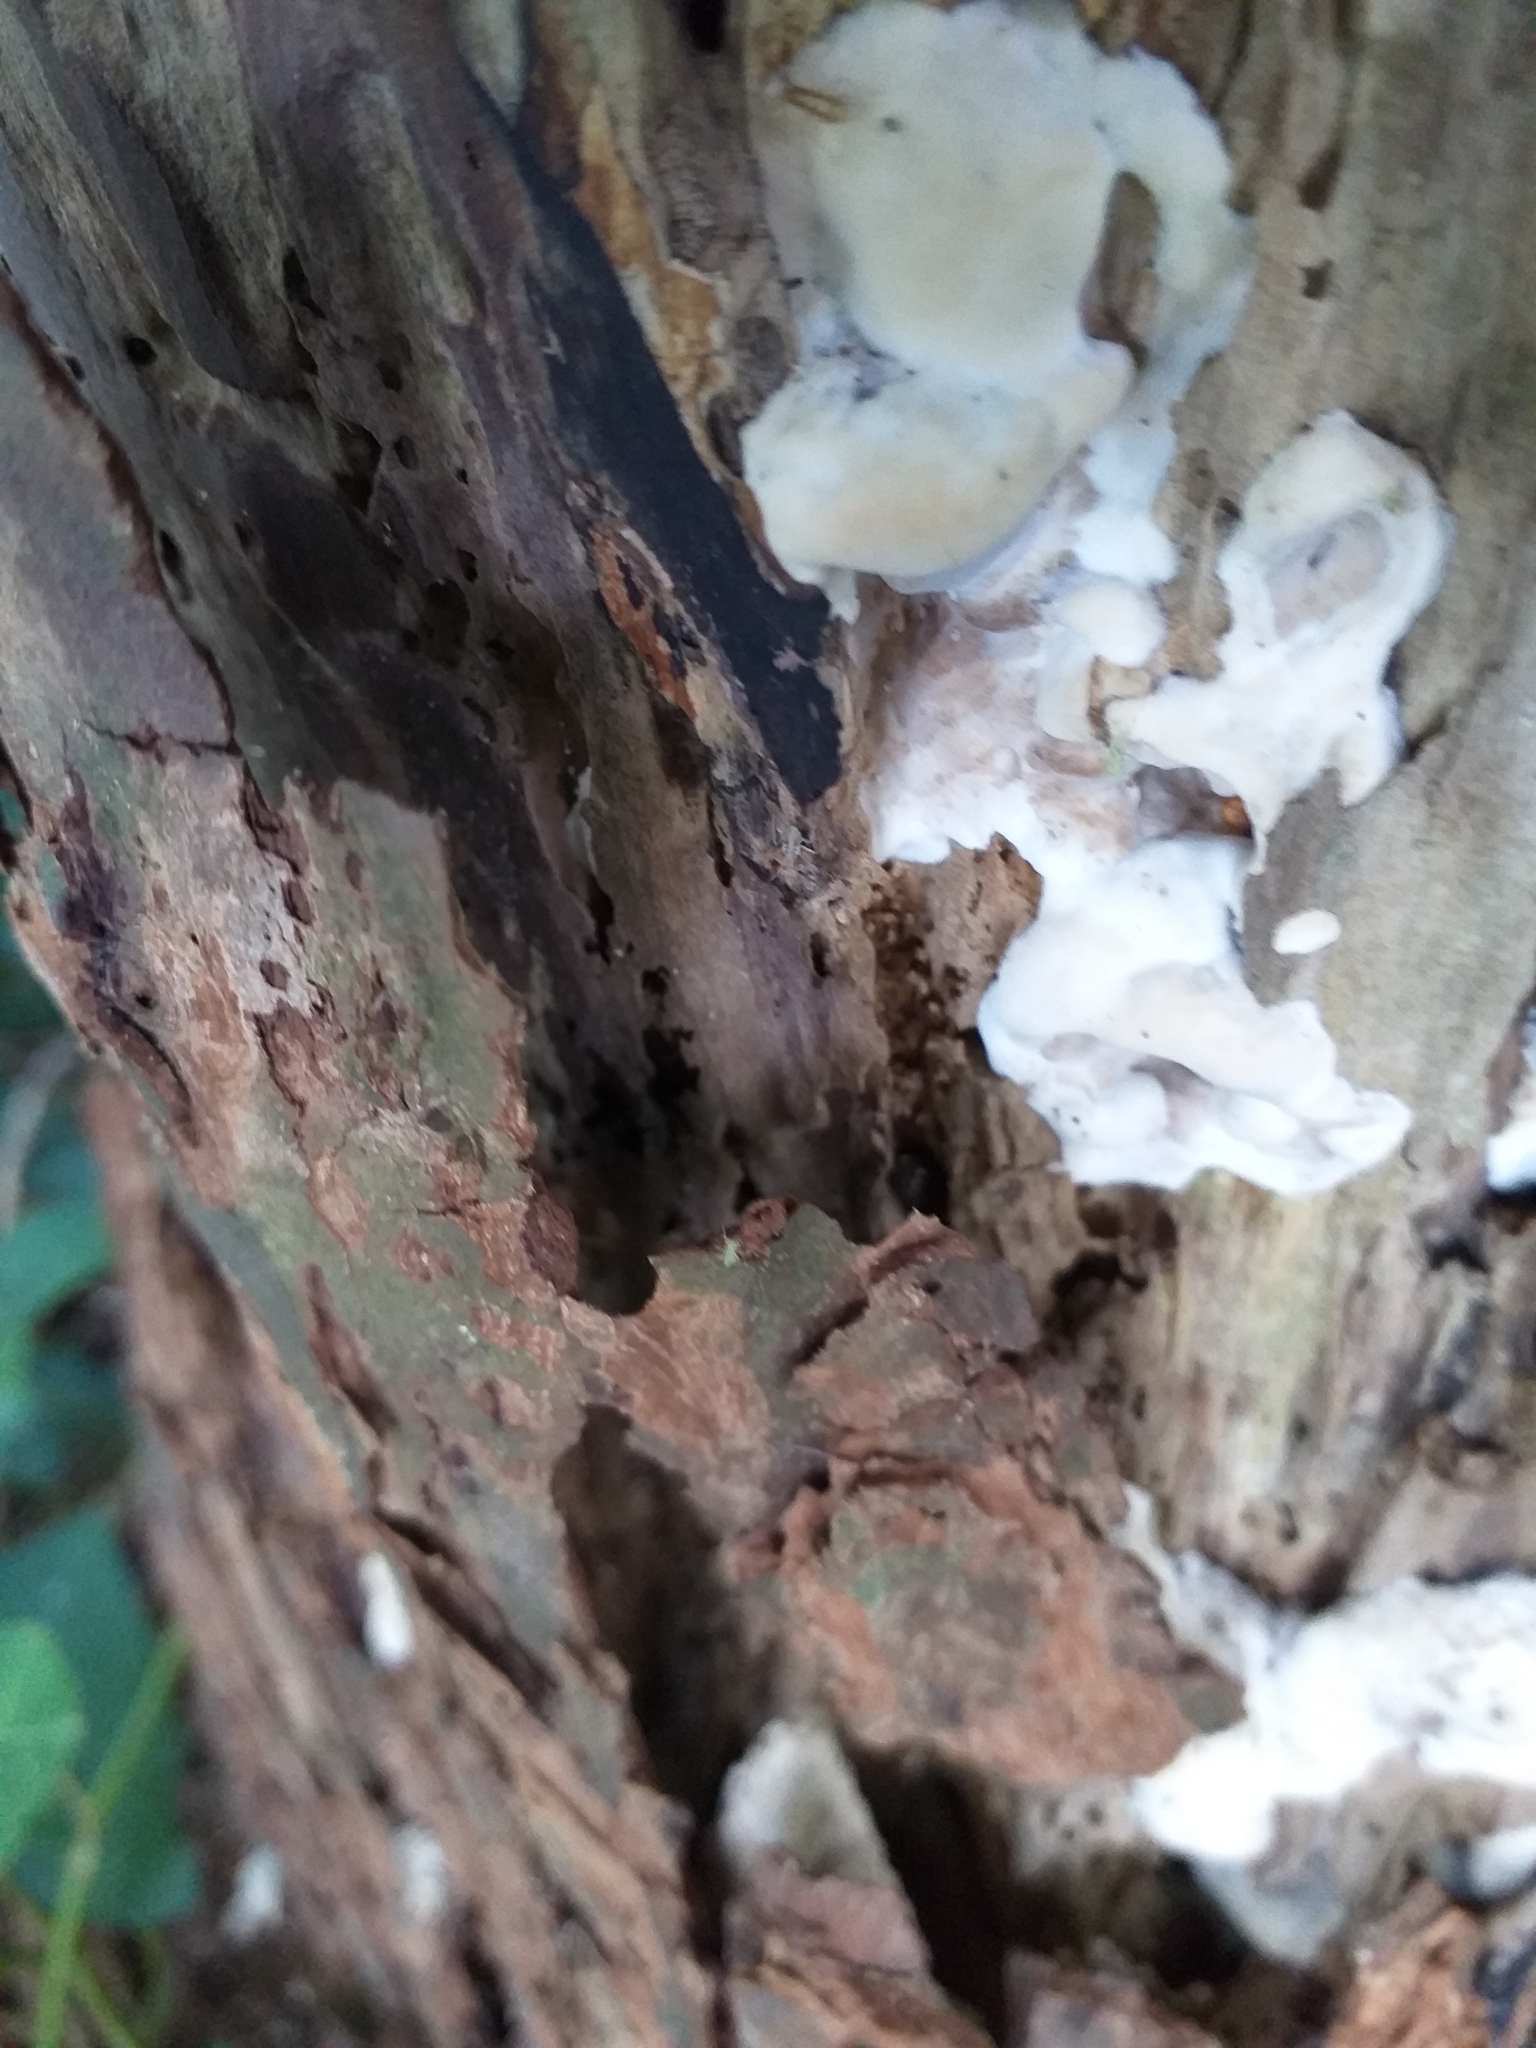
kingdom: Fungi
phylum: Ascomycota
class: Sordariomycetes
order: Xylariales
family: Xylariaceae
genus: Kretzschmaria
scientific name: Kretzschmaria deusta
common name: Brittle cinder
